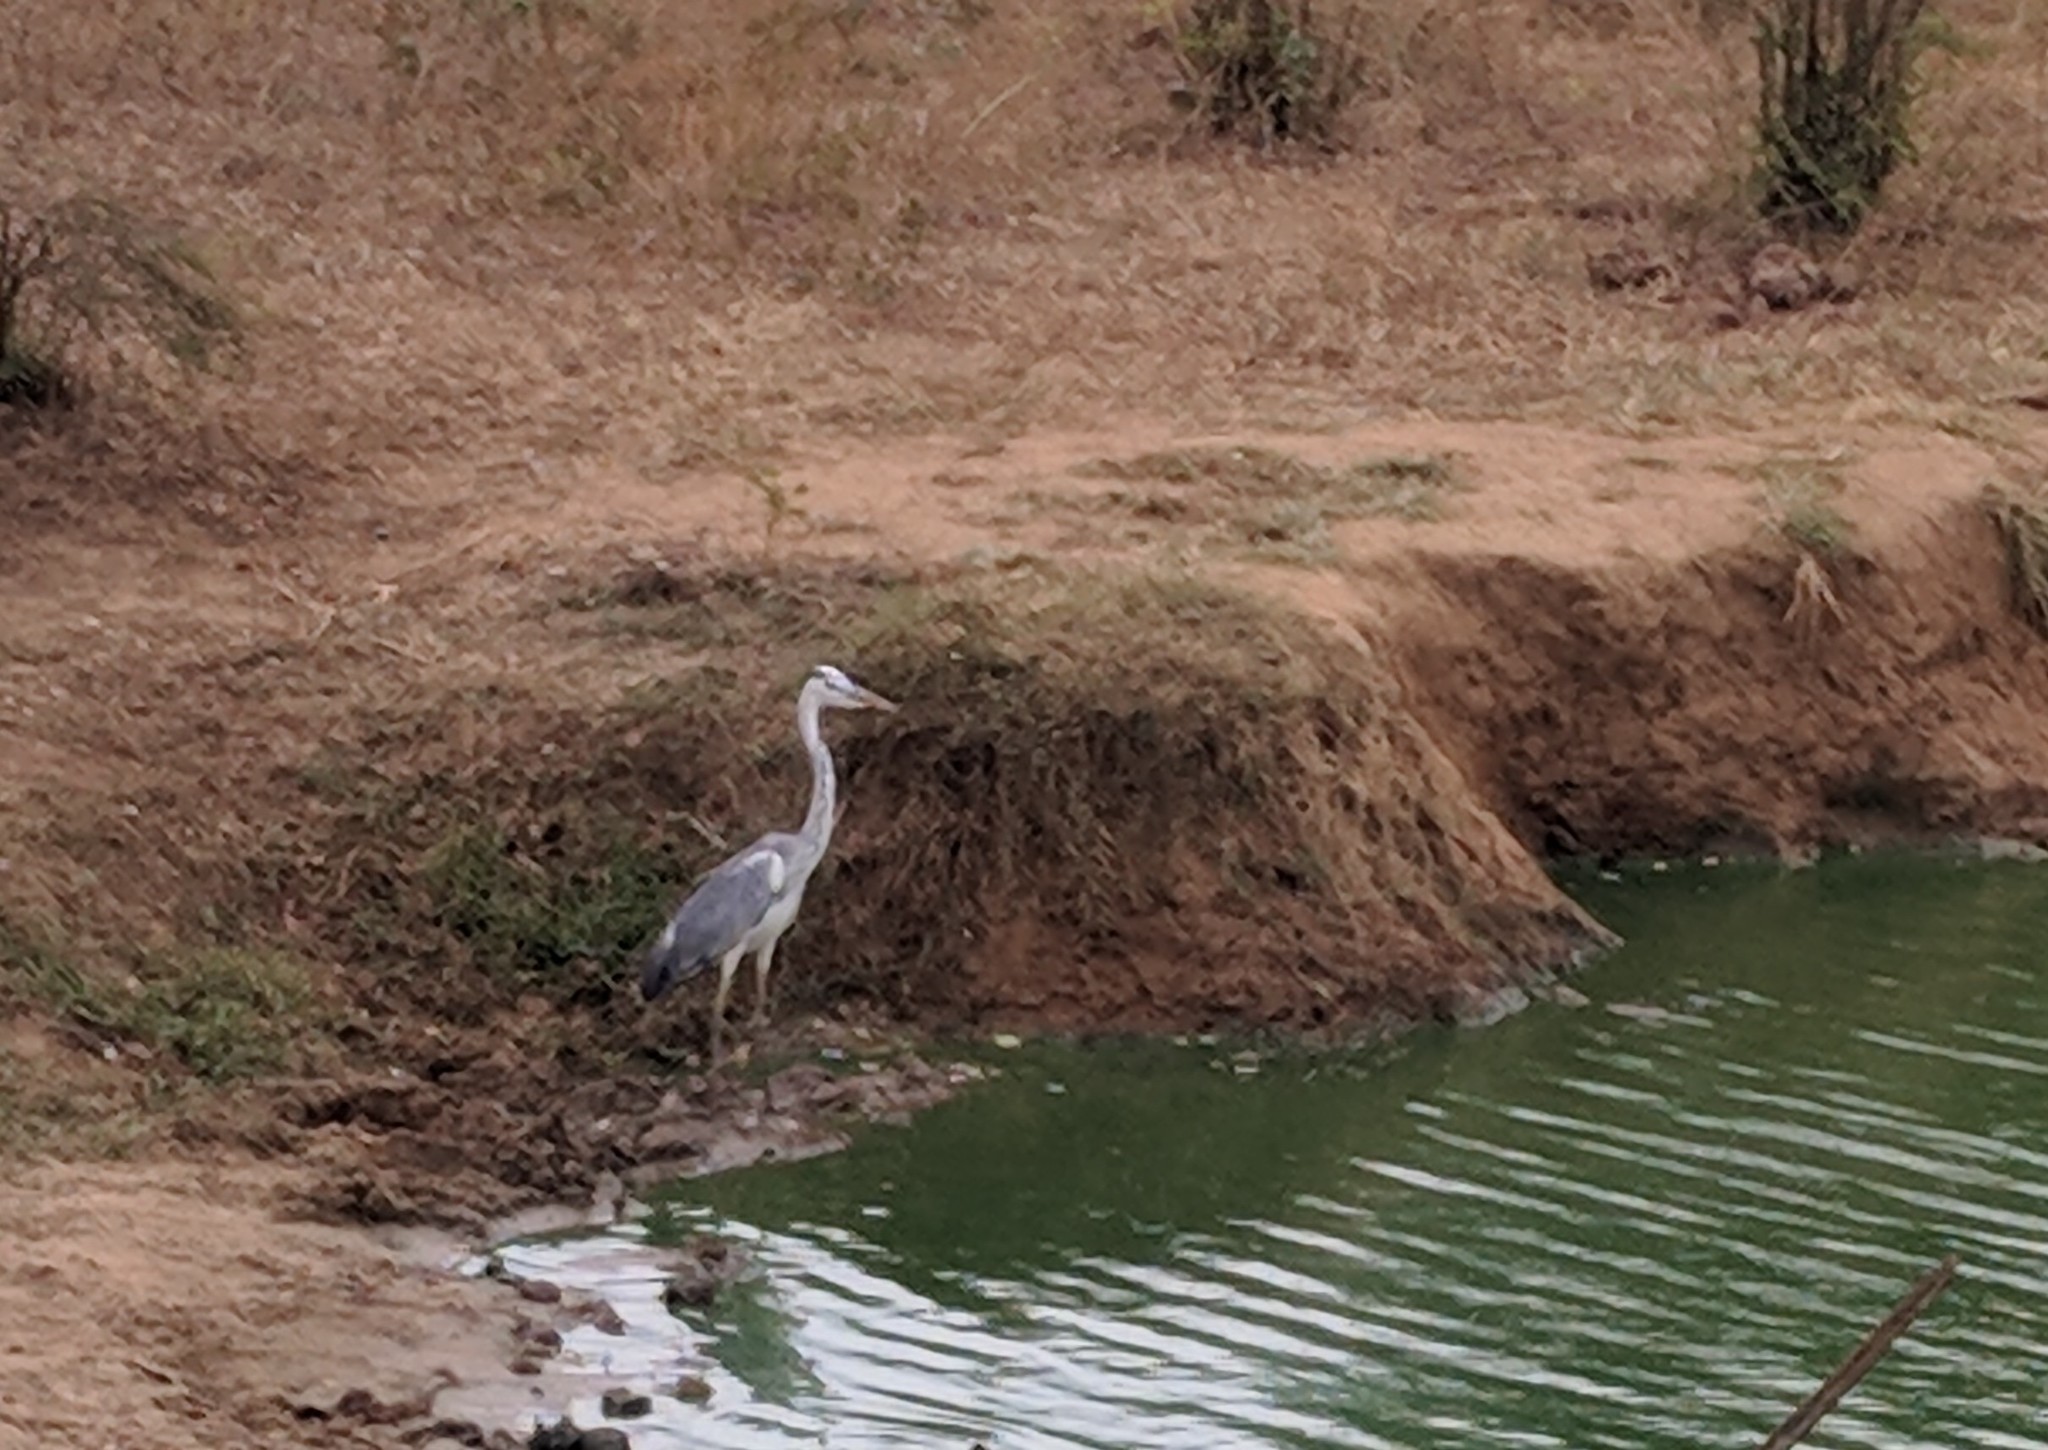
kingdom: Animalia
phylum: Chordata
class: Aves
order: Pelecaniformes
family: Ardeidae
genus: Ardea
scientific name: Ardea cinerea
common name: Grey heron
